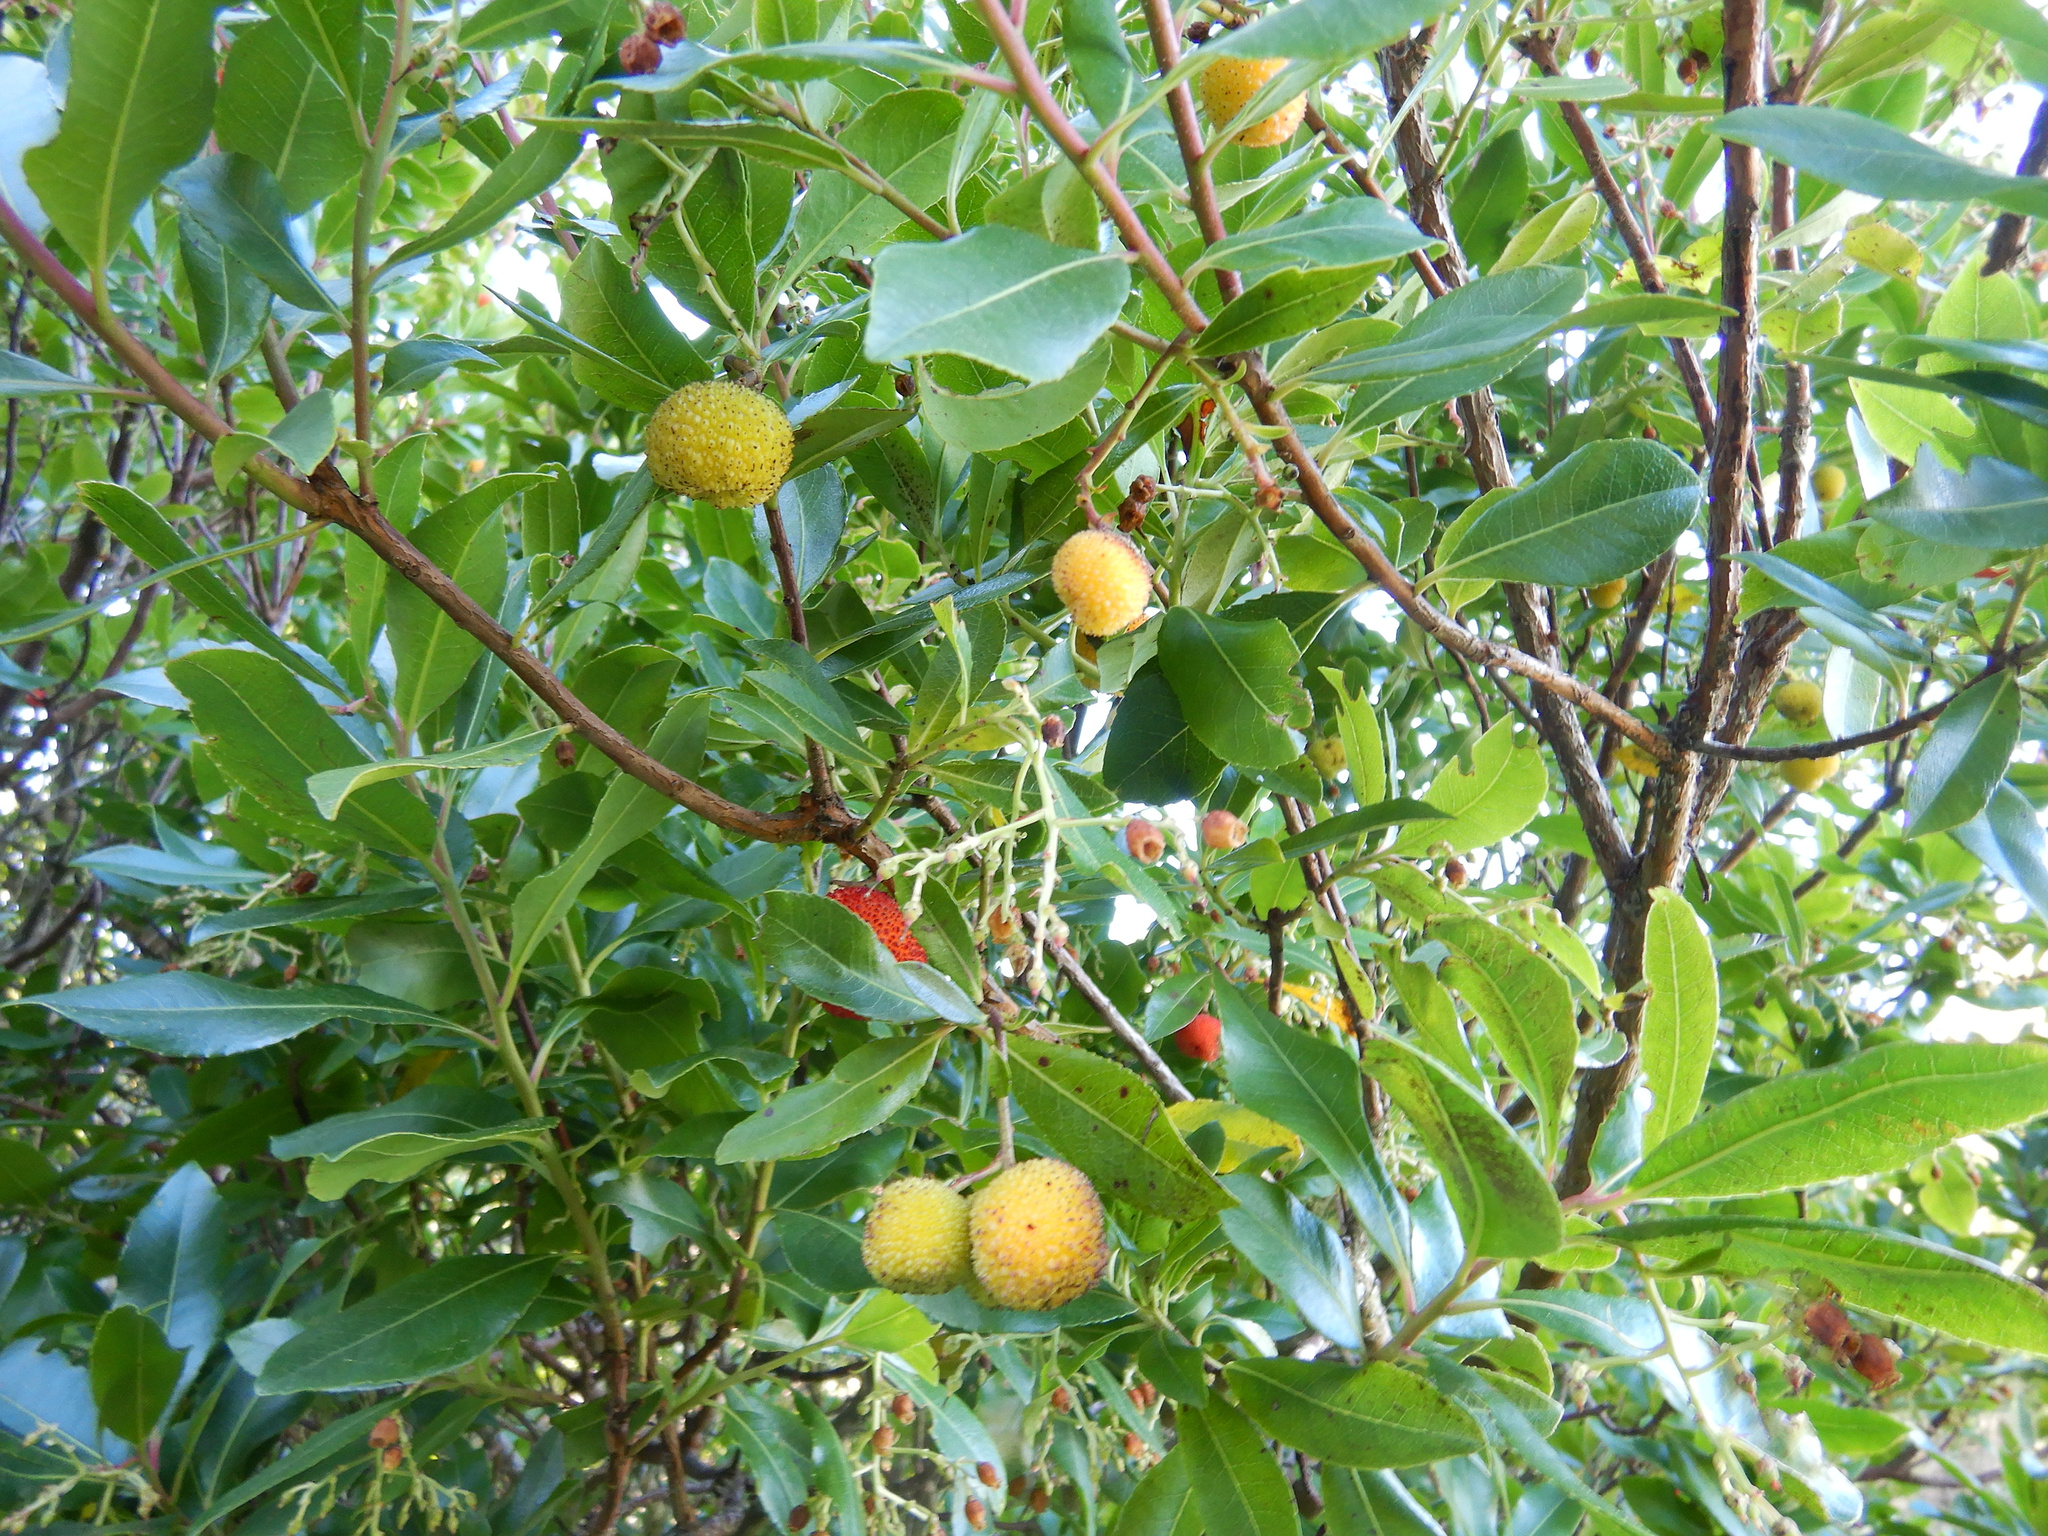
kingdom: Plantae
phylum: Tracheophyta
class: Magnoliopsida
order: Ericales
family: Ericaceae
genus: Arbutus
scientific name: Arbutus unedo
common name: Strawberry-tree
